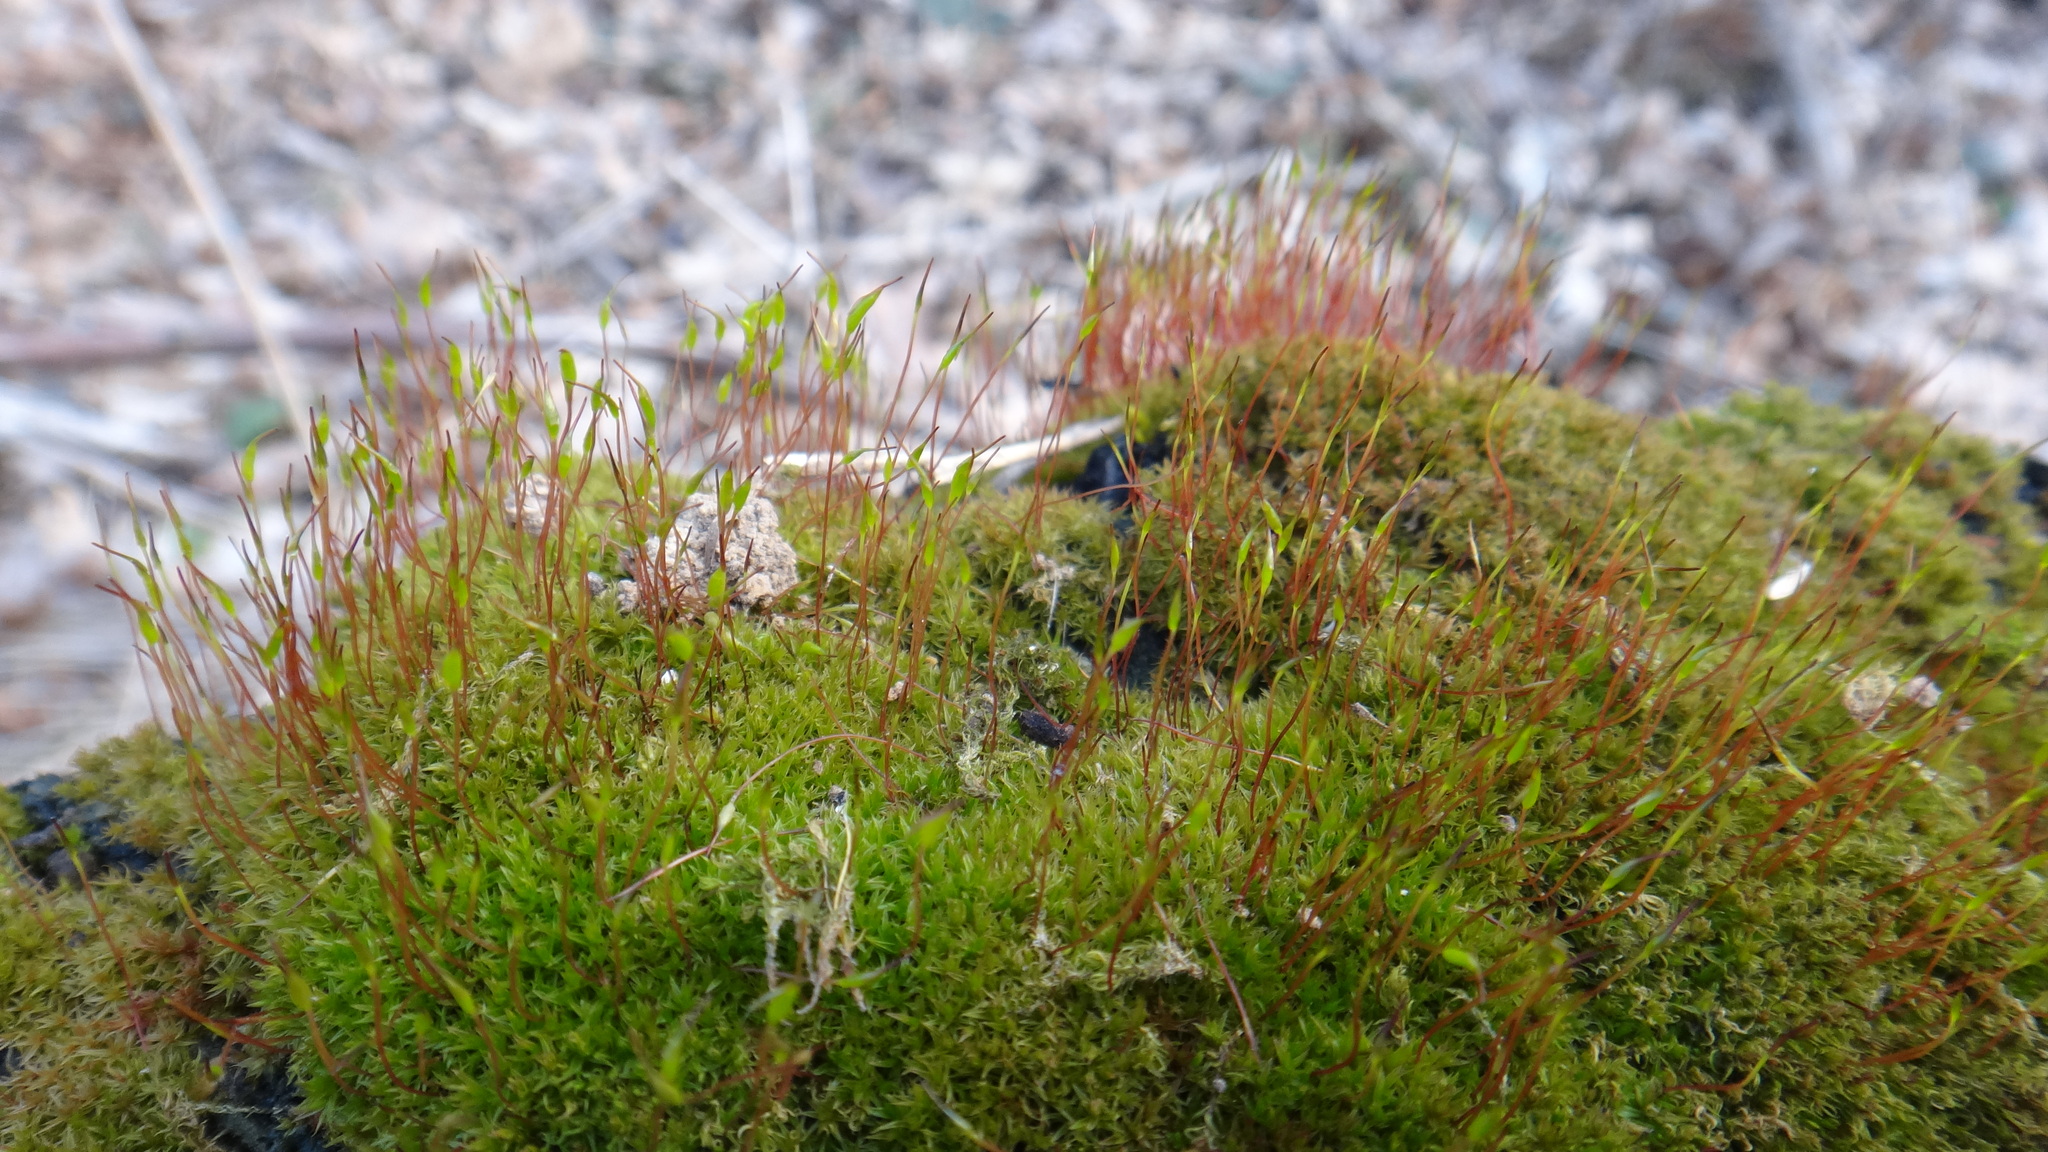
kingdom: Plantae
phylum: Bryophyta
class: Bryopsida
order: Dicranales
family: Ditrichaceae
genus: Ceratodon
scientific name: Ceratodon purpureus
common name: Redshank
